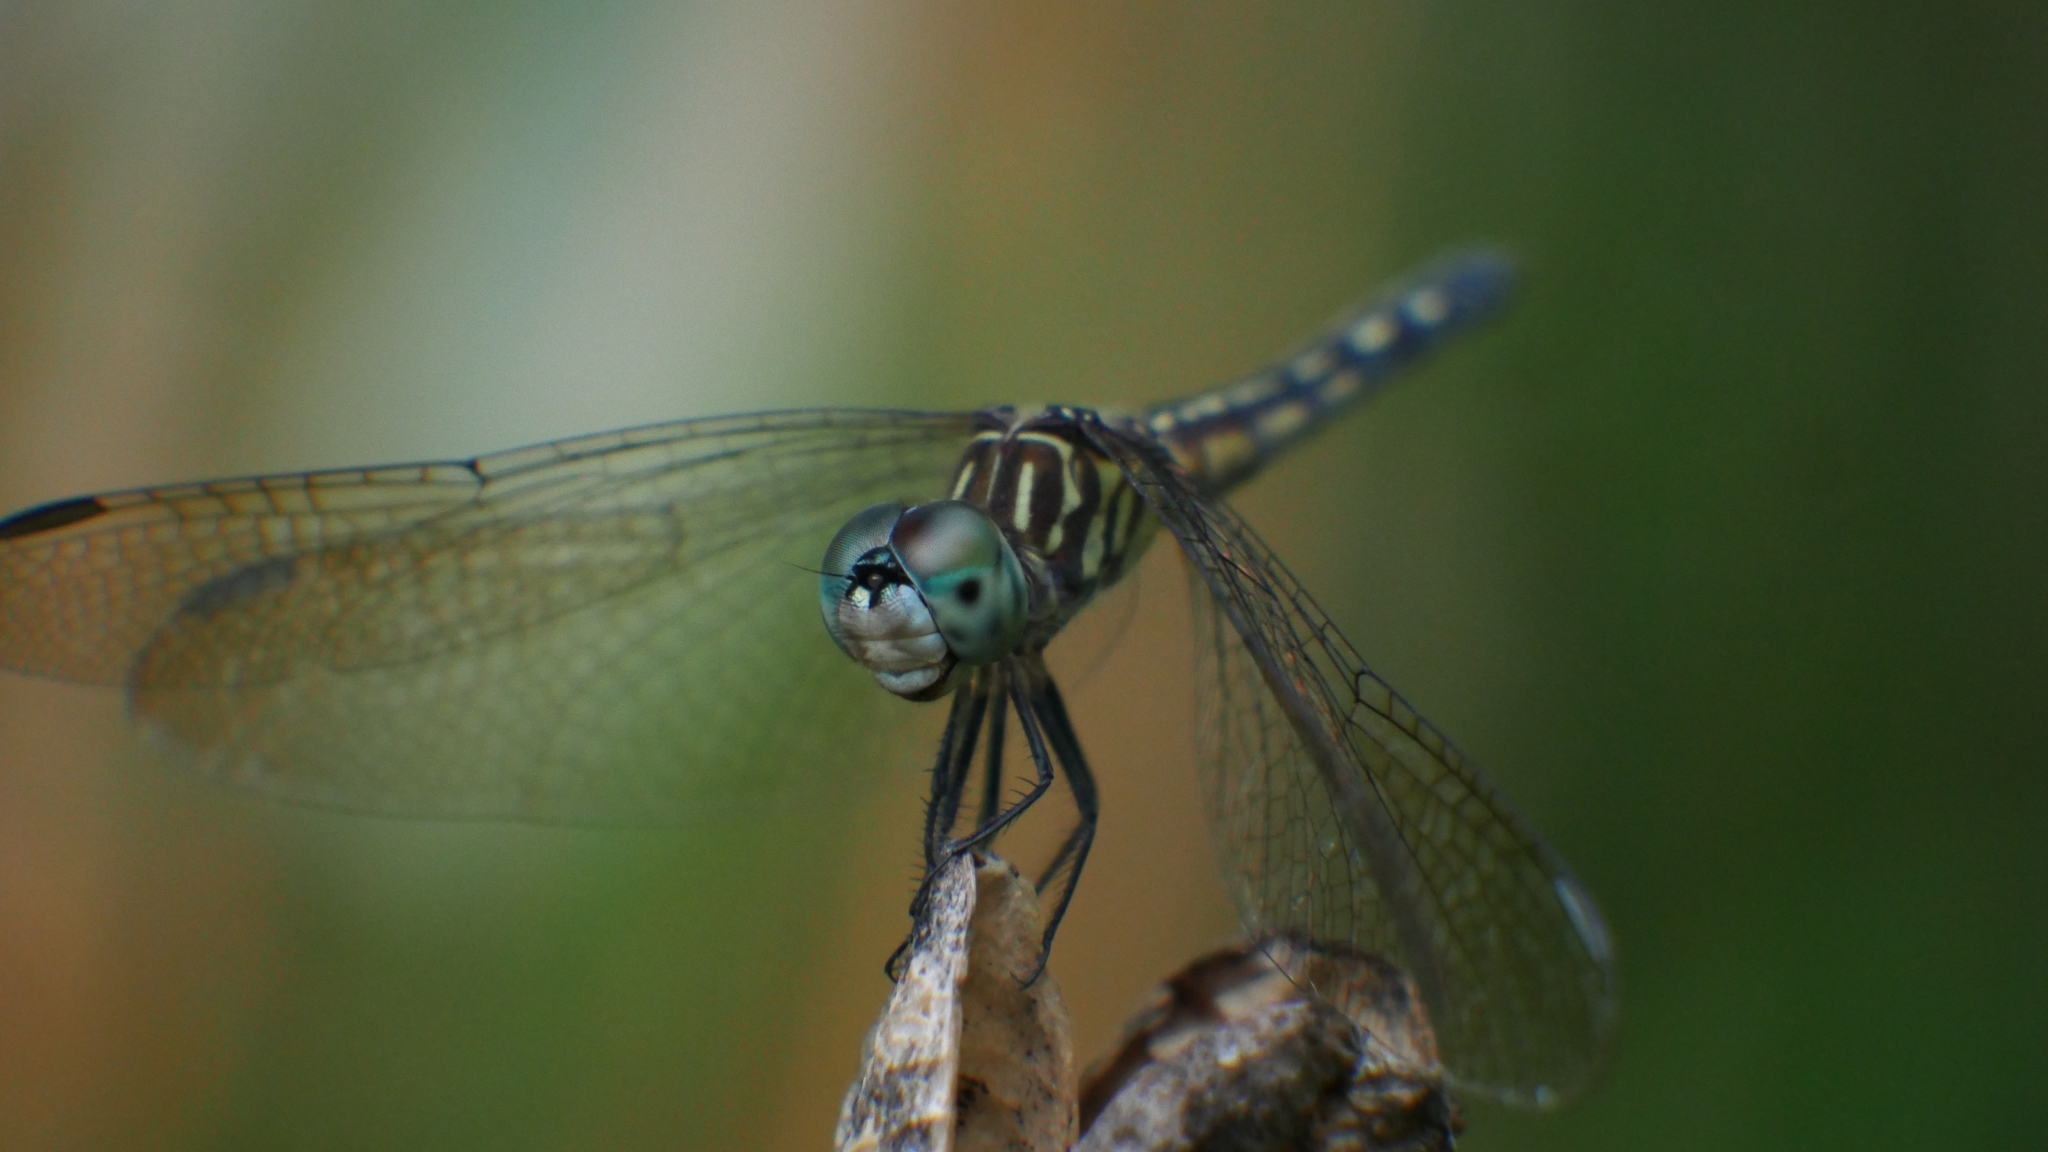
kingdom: Animalia
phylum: Arthropoda
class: Insecta
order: Odonata
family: Libellulidae
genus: Pachydiplax
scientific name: Pachydiplax longipennis
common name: Blue dasher
